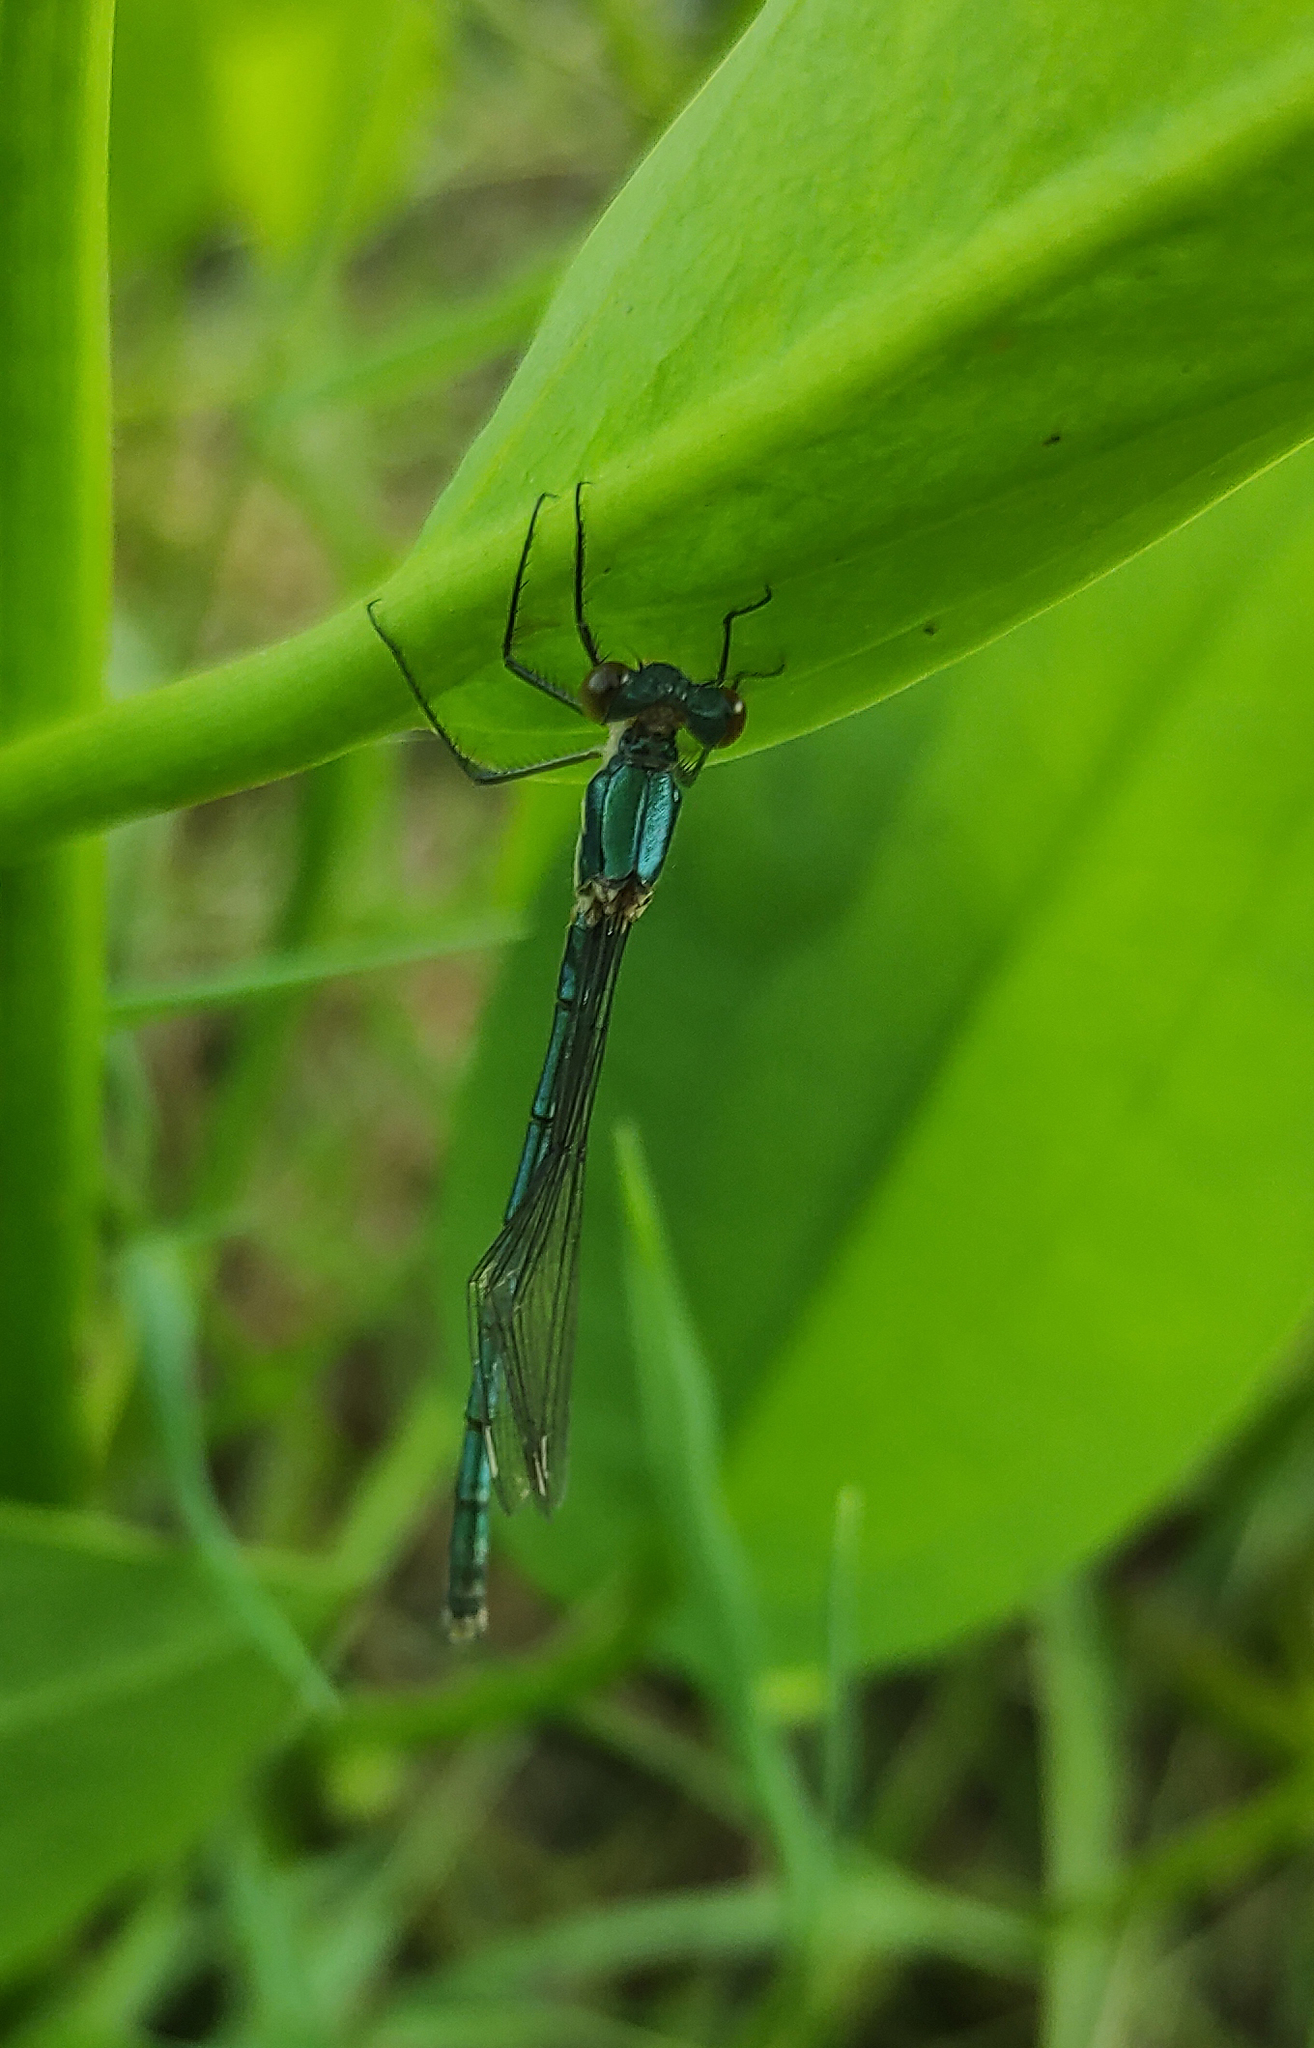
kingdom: Animalia
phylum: Arthropoda
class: Insecta
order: Odonata
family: Lestidae
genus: Lestes
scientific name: Lestes dryas
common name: Scarce emerald damselfly
